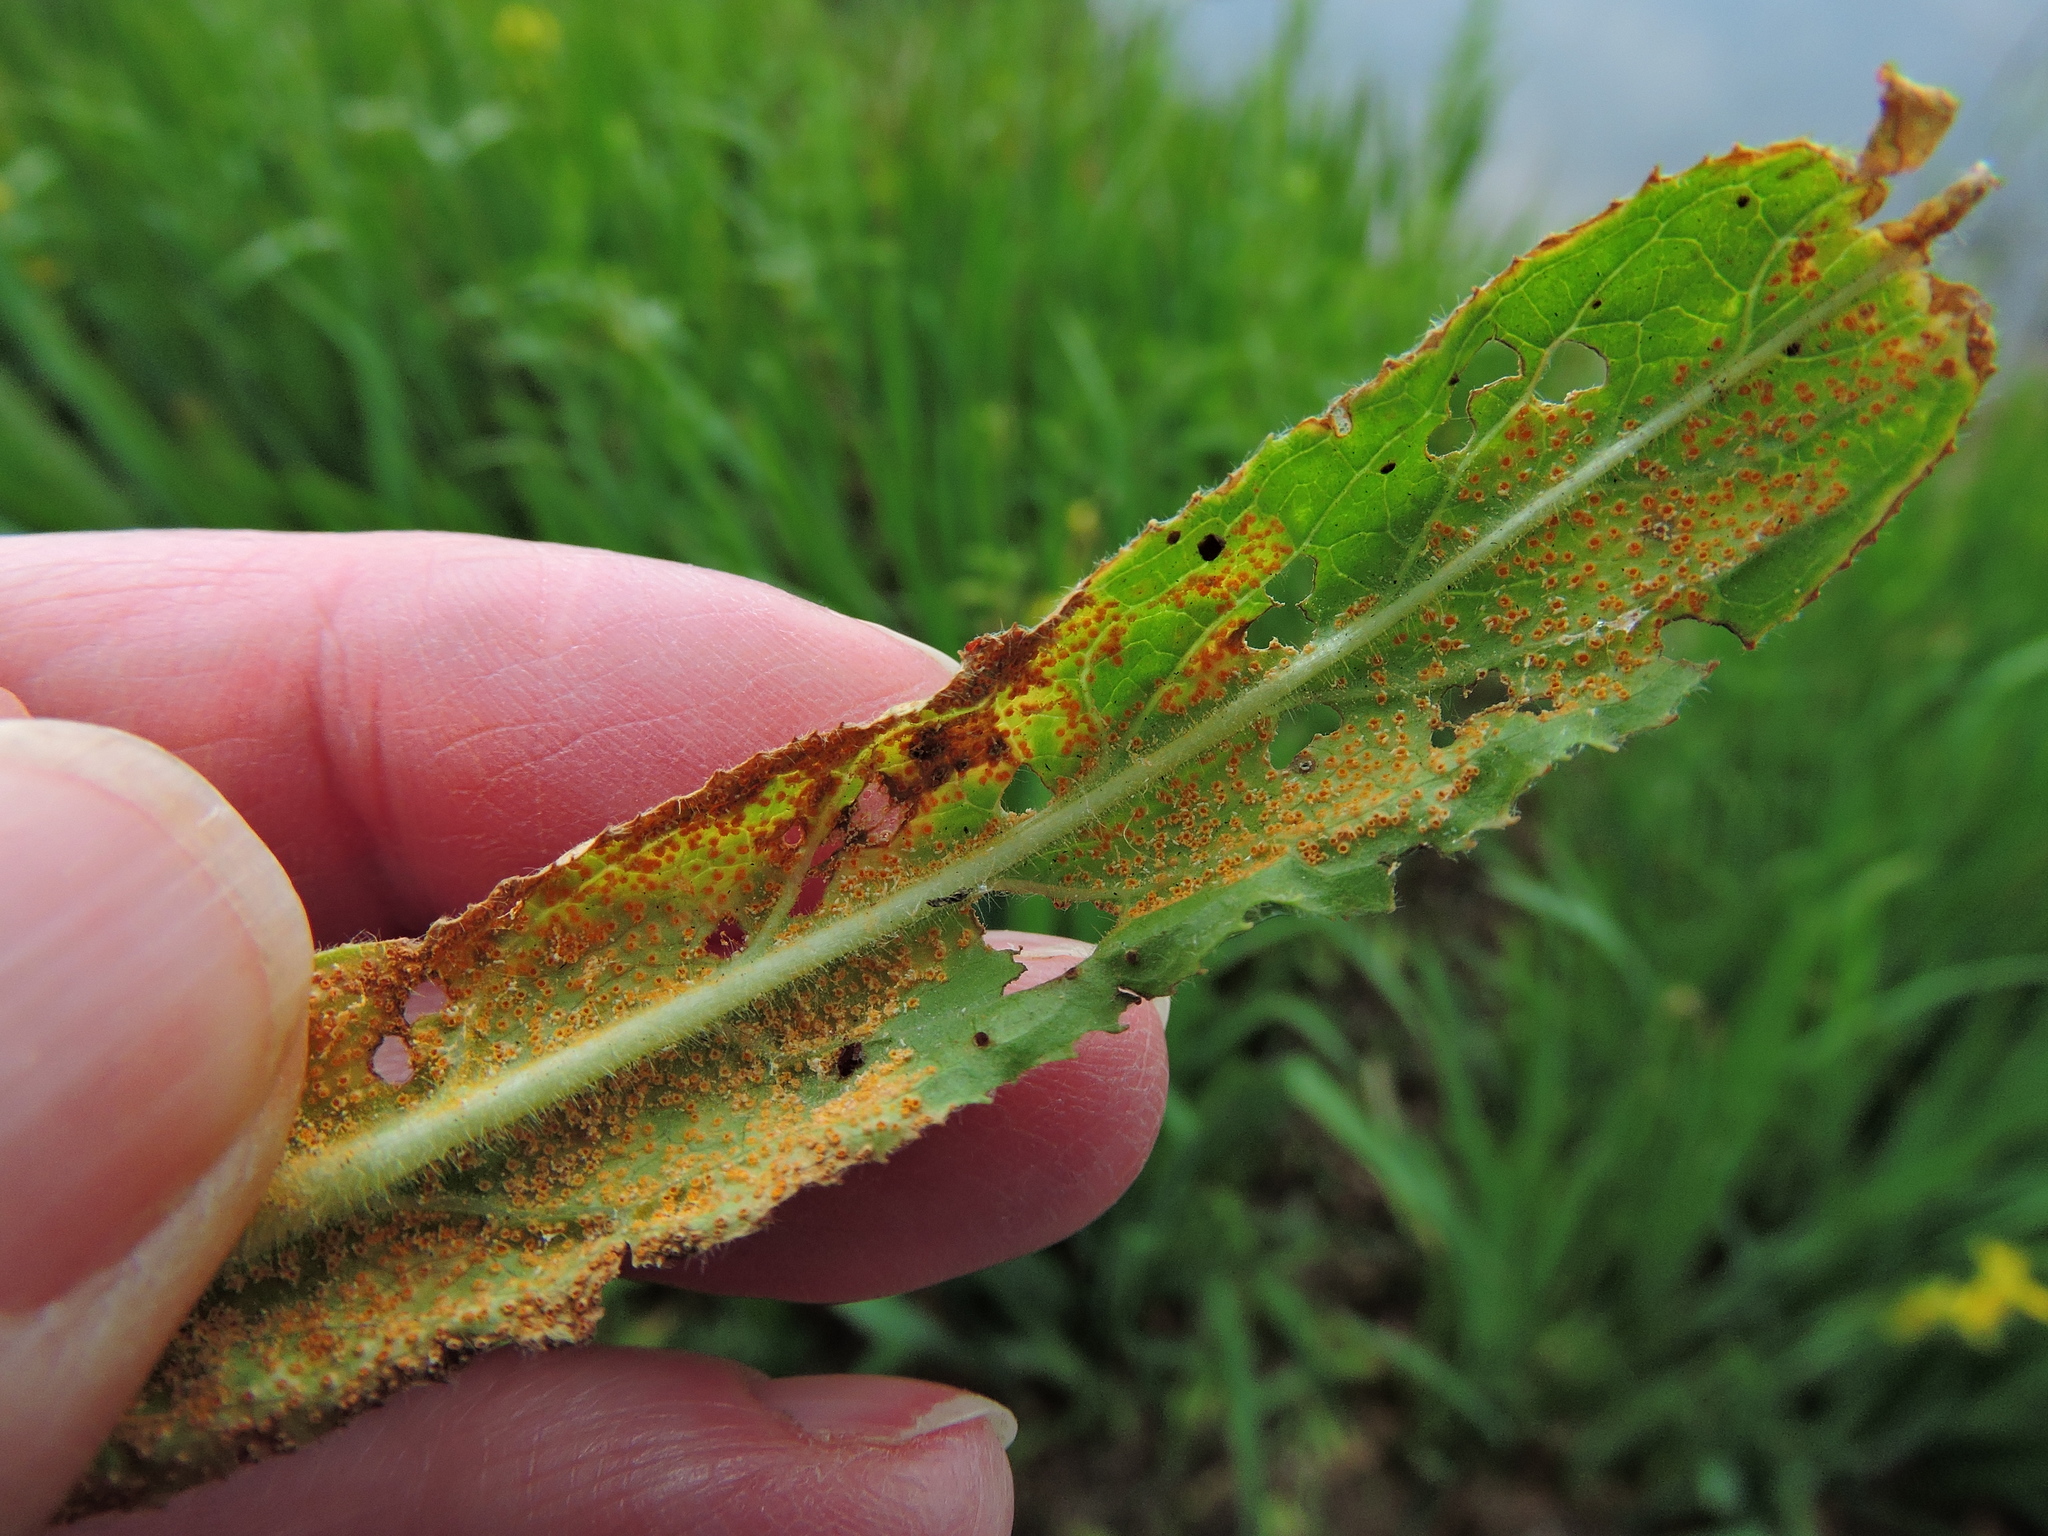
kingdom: Fungi
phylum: Basidiomycota
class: Pucciniomycetes
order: Pucciniales
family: Pucciniaceae
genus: Puccinia
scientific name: Puccinia pulverulenta
